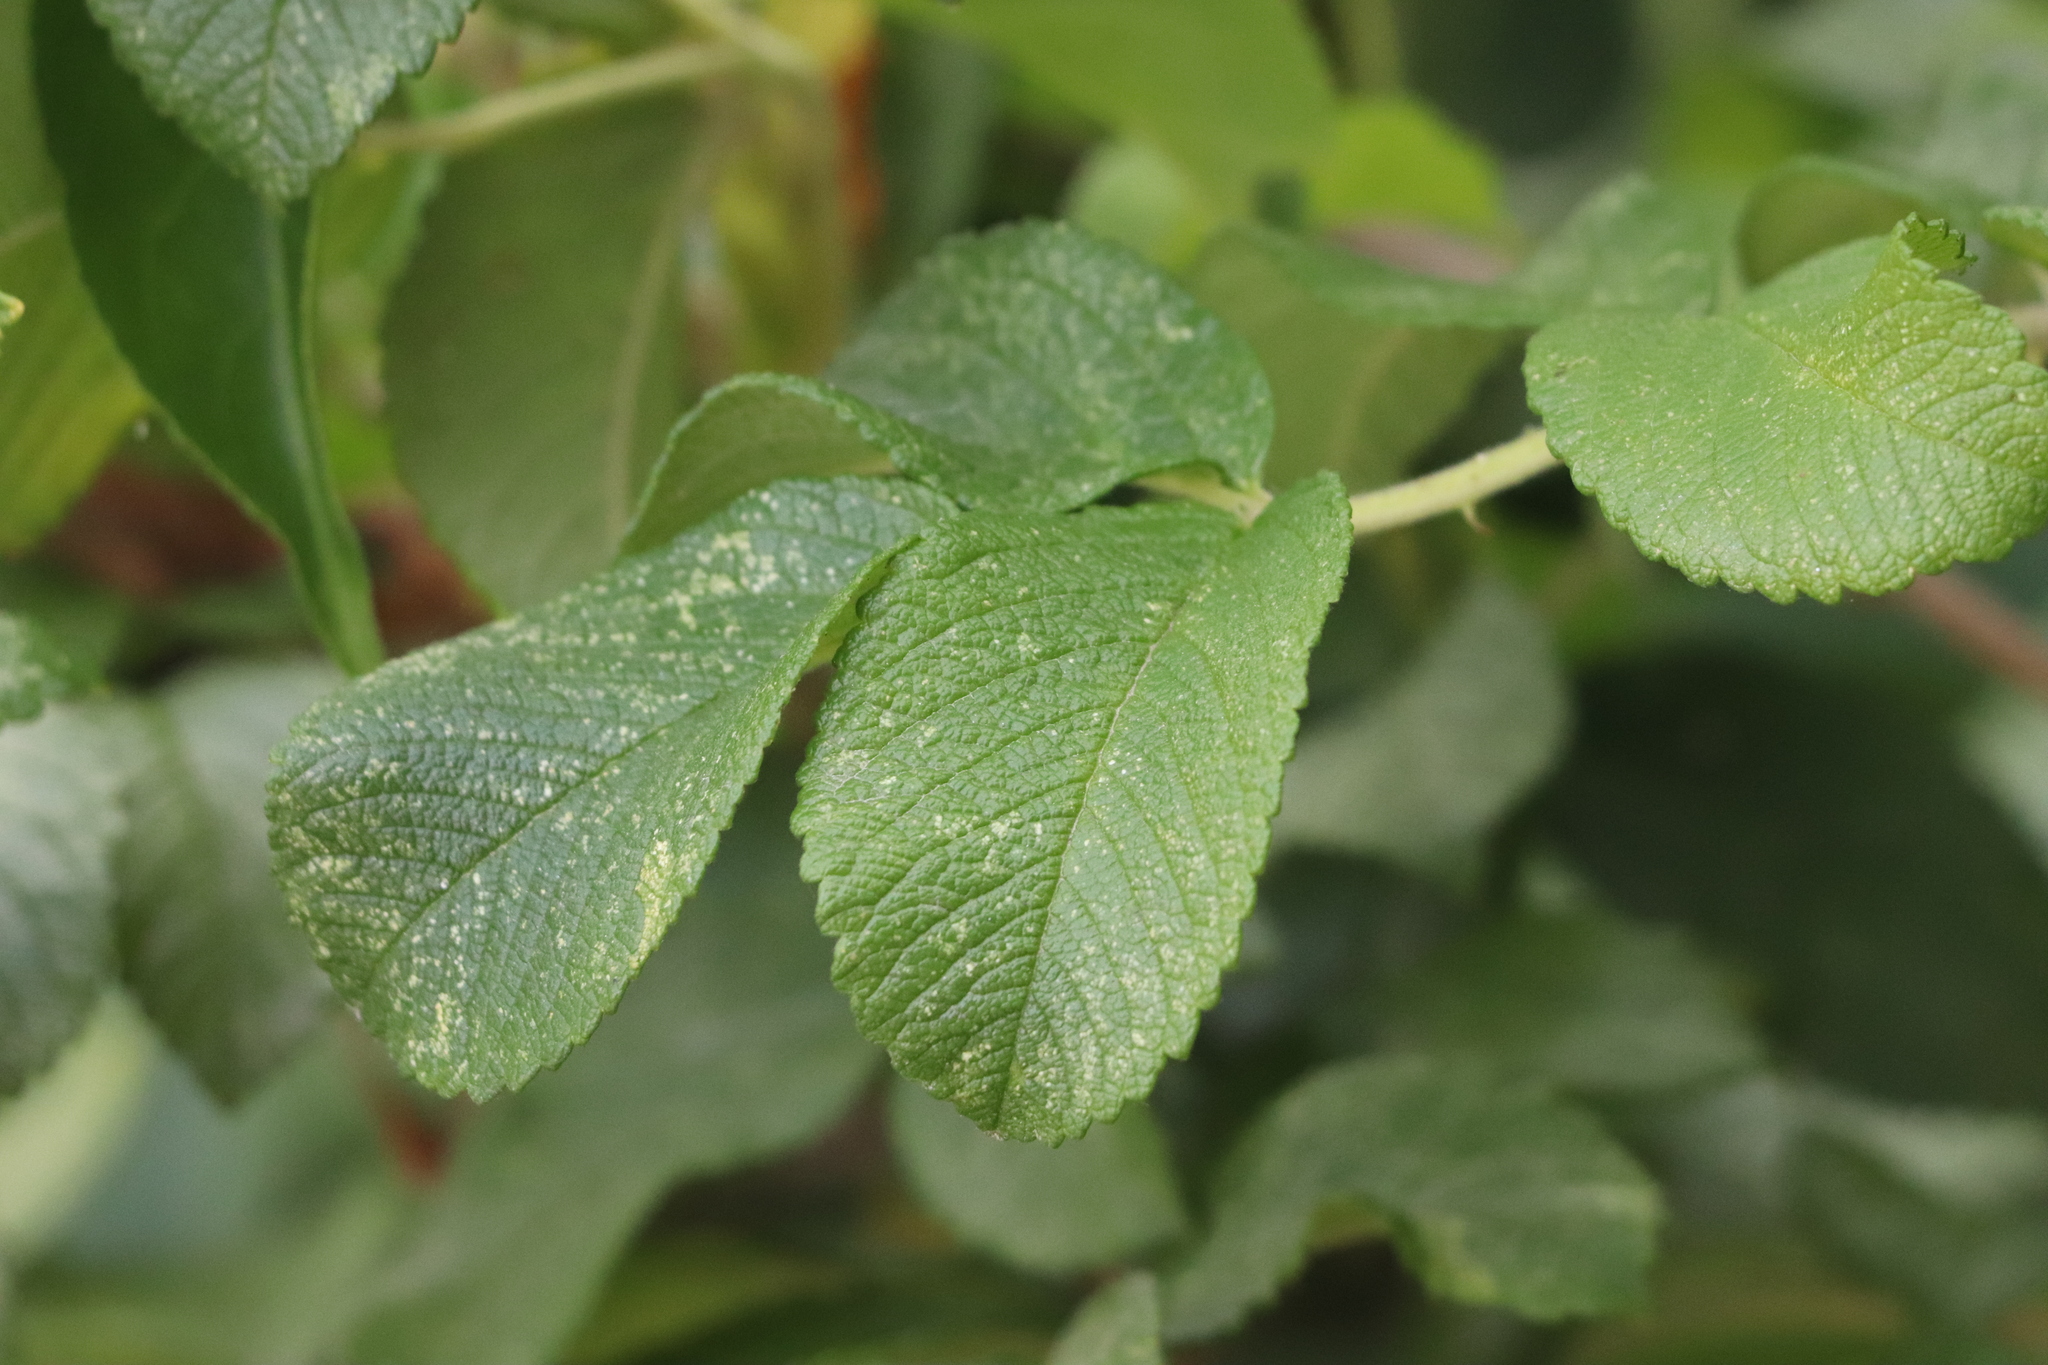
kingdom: Plantae
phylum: Tracheophyta
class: Magnoliopsida
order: Rosales
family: Rosaceae
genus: Rosa
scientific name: Rosa rugosa
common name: Japanese rose
